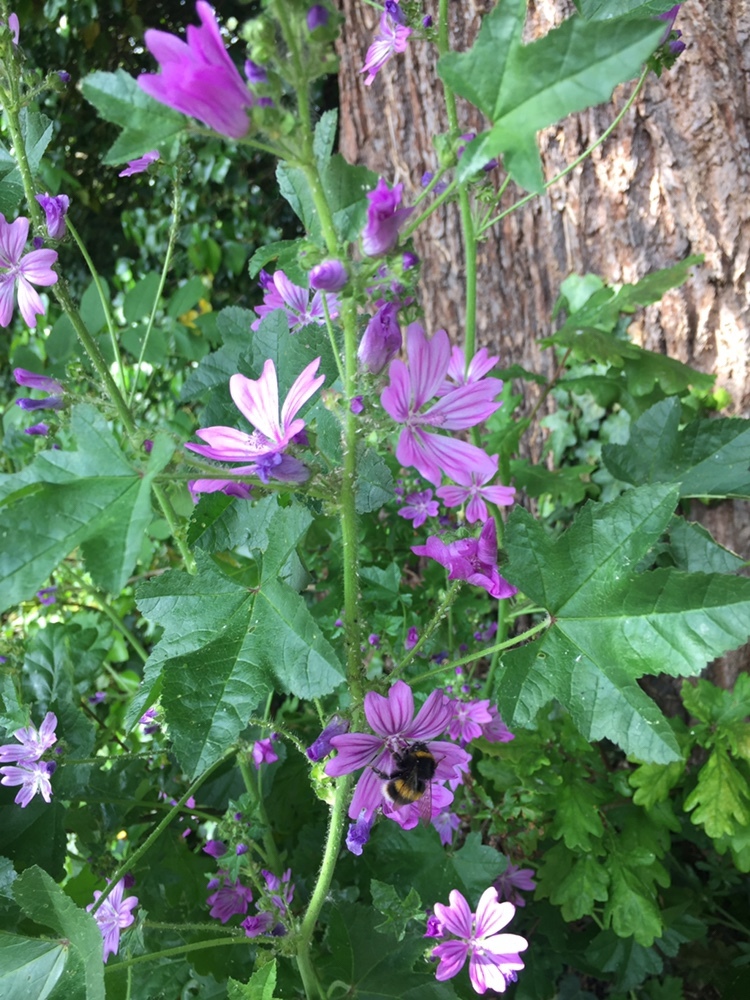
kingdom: Plantae
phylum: Tracheophyta
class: Magnoliopsida
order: Malvales
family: Malvaceae
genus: Malva
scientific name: Malva sylvestris
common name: Common mallow
